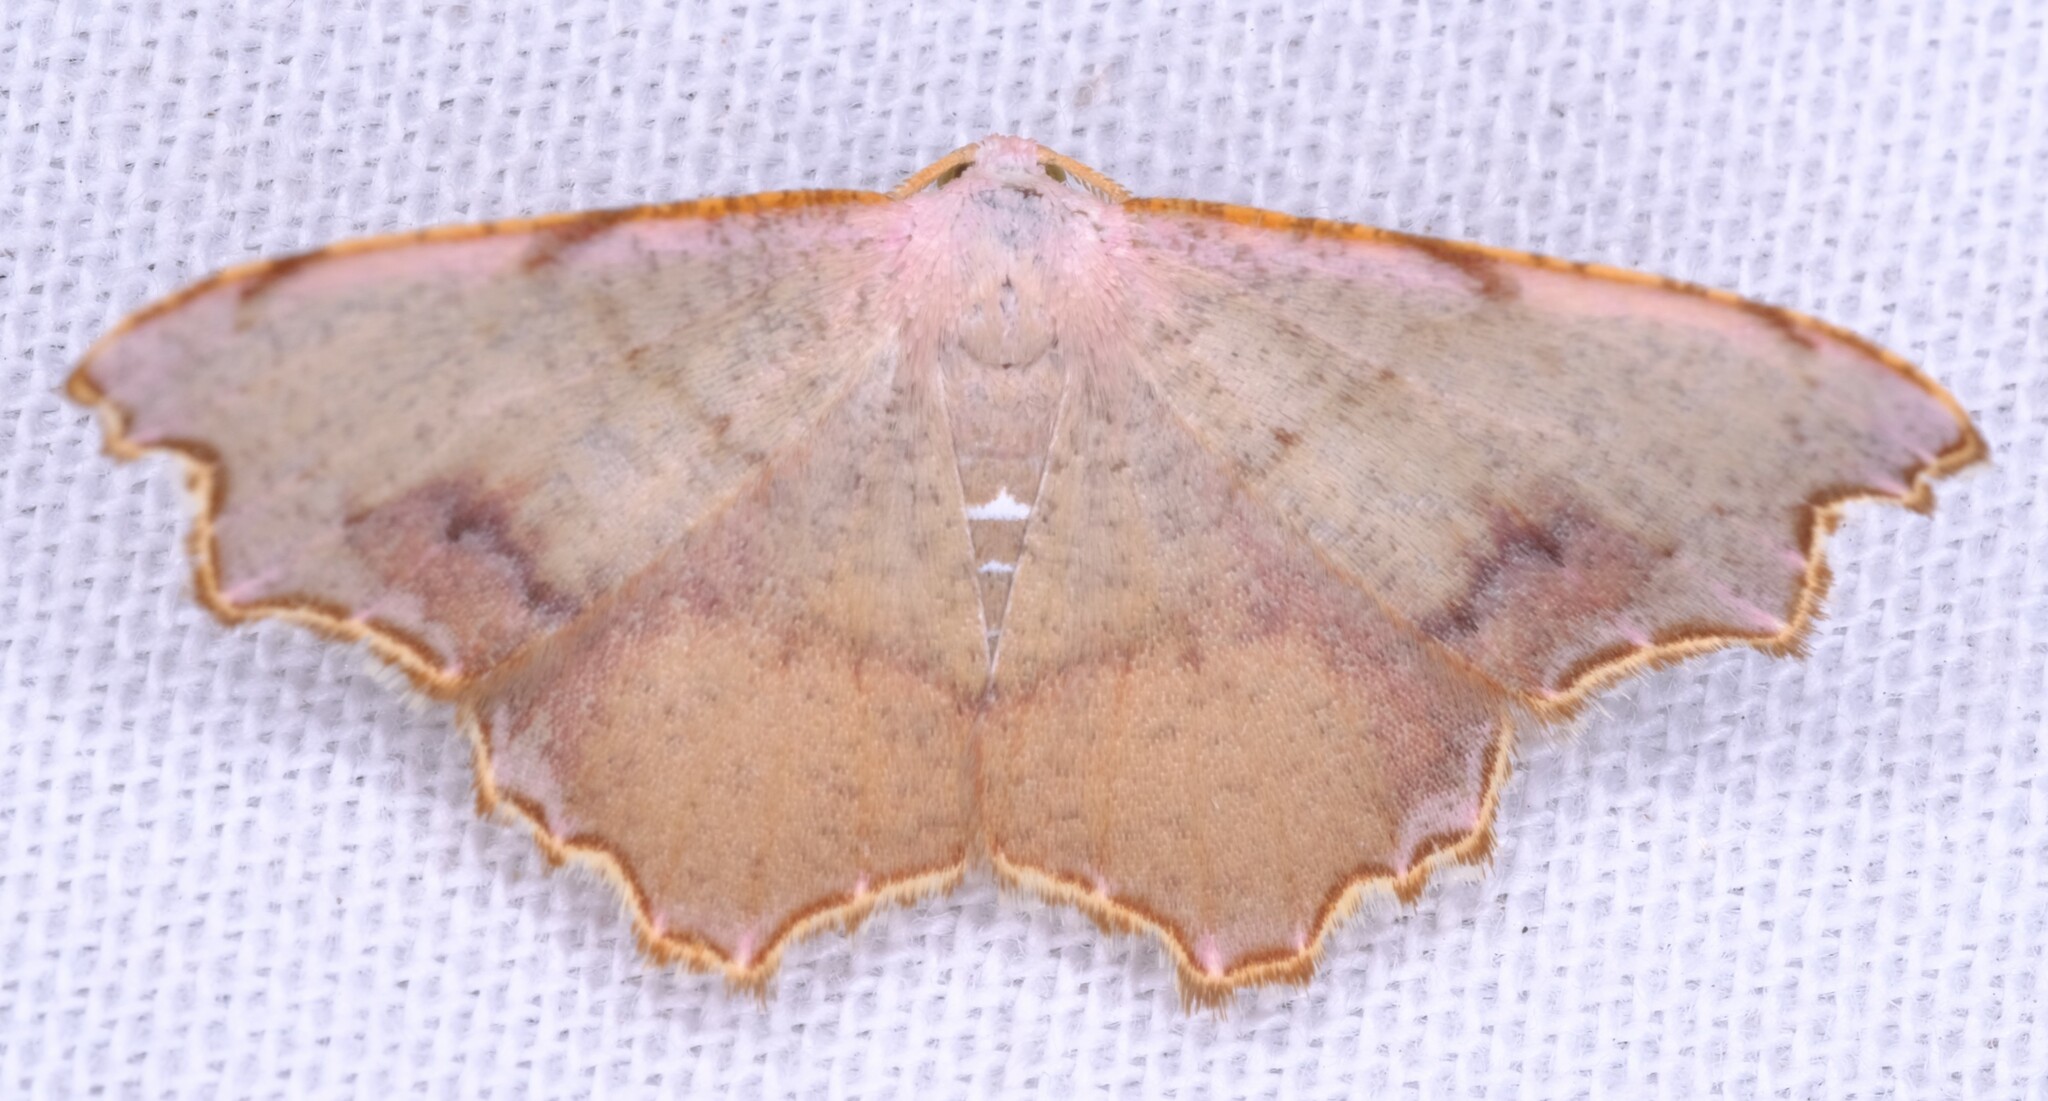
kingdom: Animalia
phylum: Arthropoda
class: Insecta
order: Lepidoptera
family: Geometridae
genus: Epicompsa
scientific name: Epicompsa xanthocrossa
